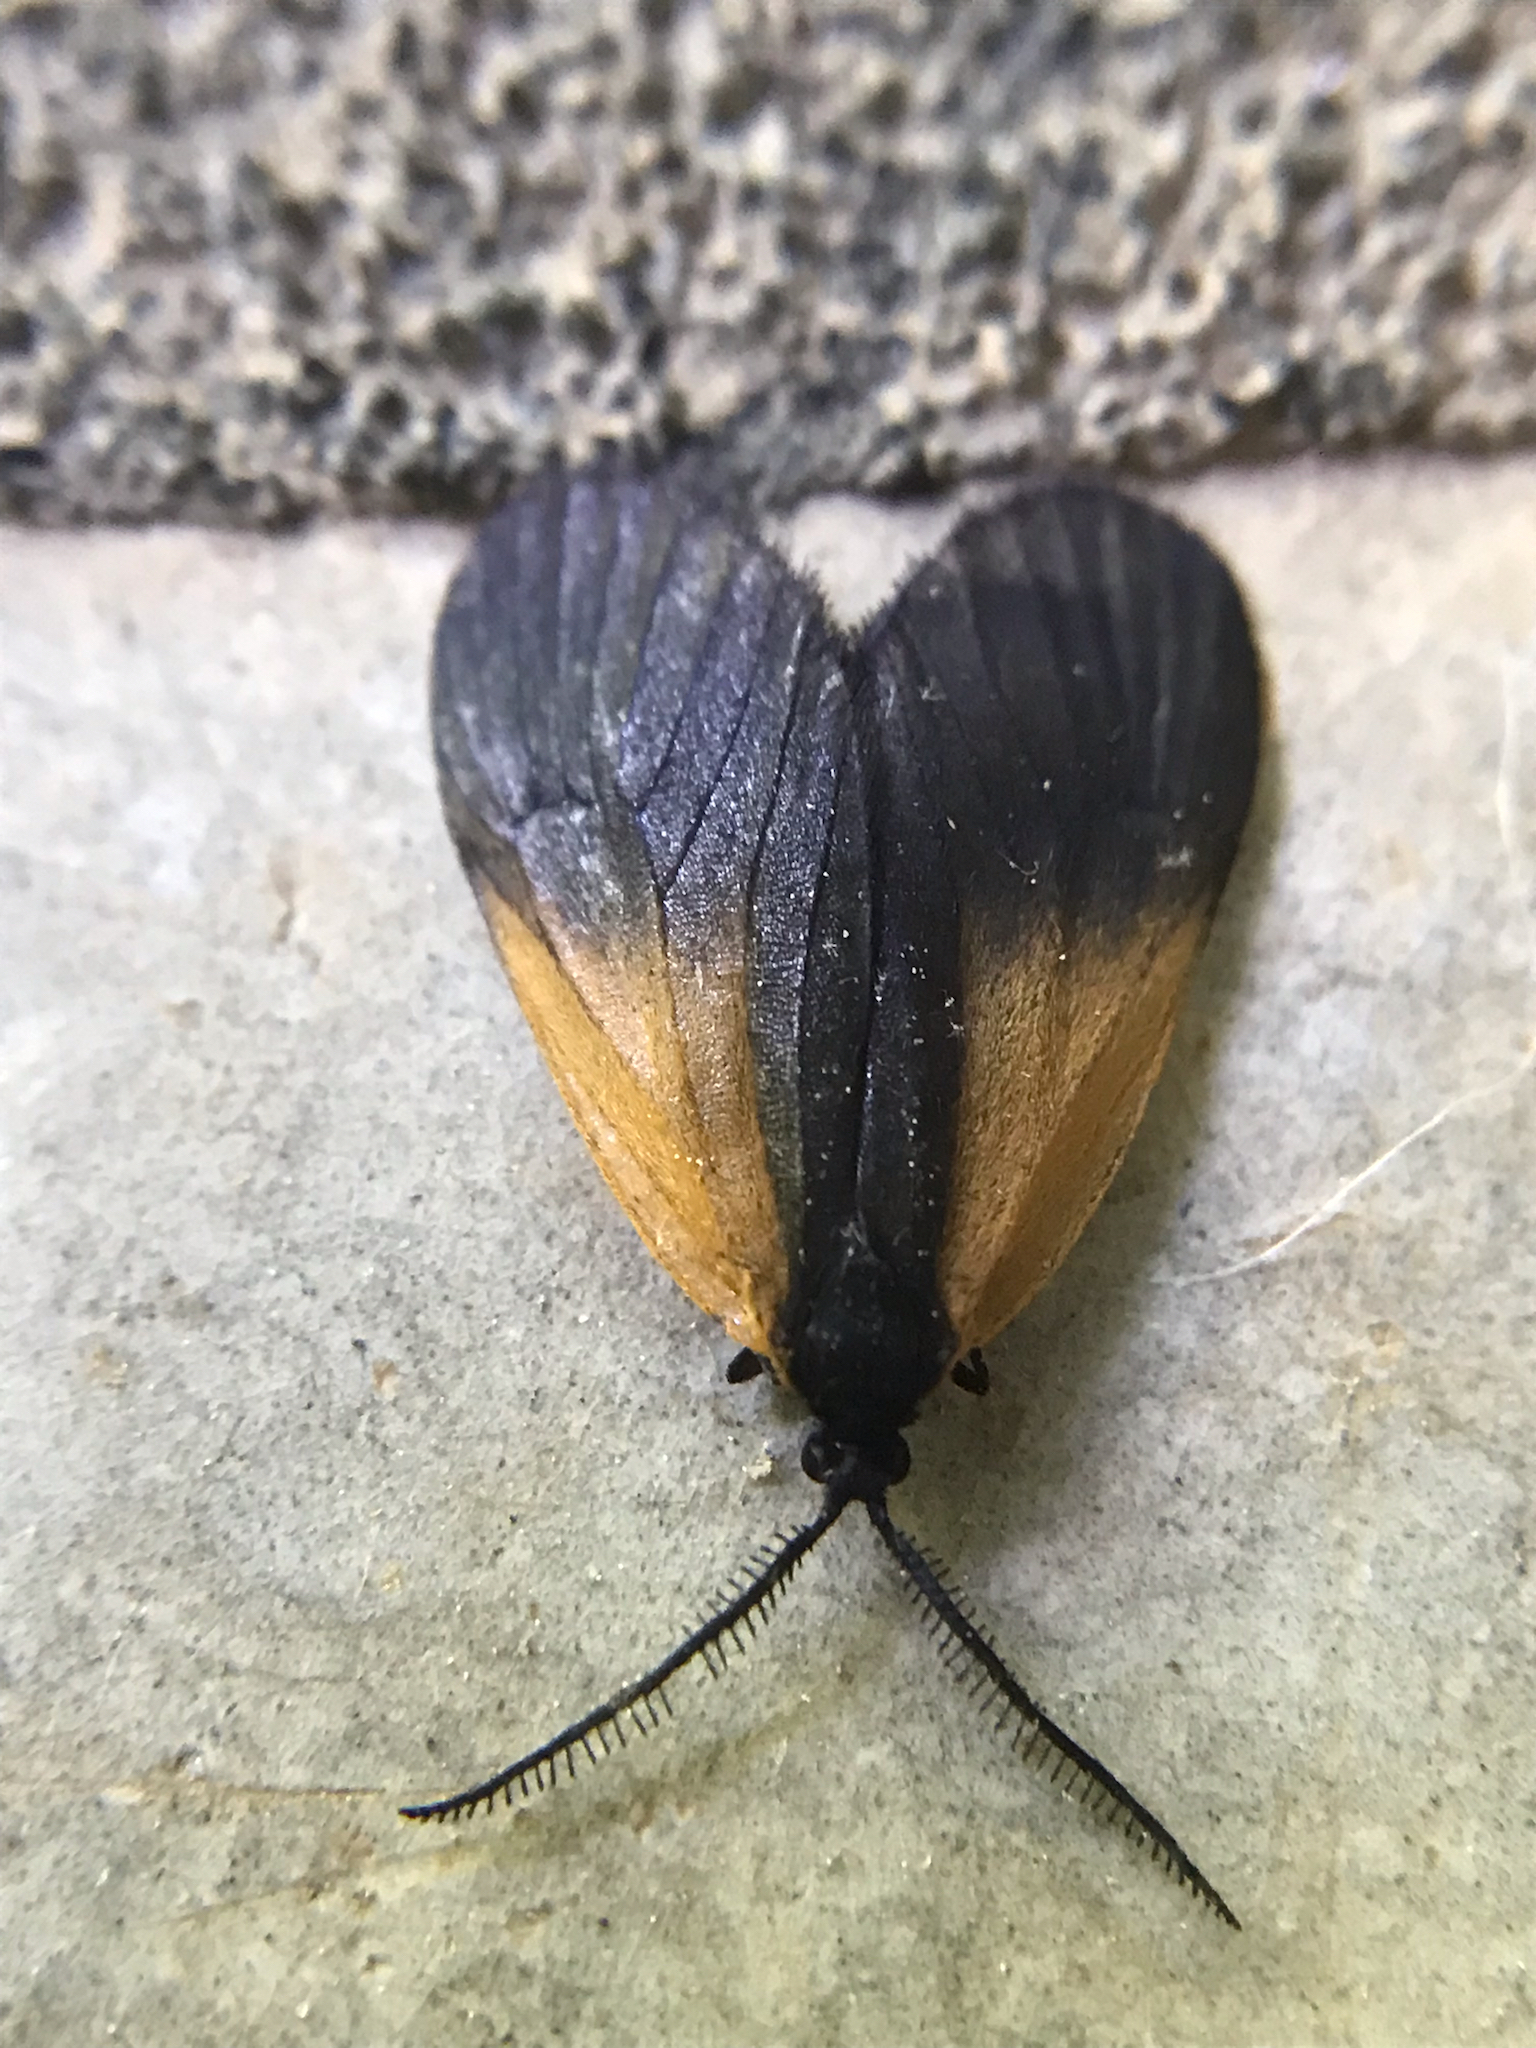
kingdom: Animalia
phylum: Arthropoda
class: Insecta
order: Lepidoptera
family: Zygaenidae
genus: Malthaca
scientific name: Malthaca dimidiata
